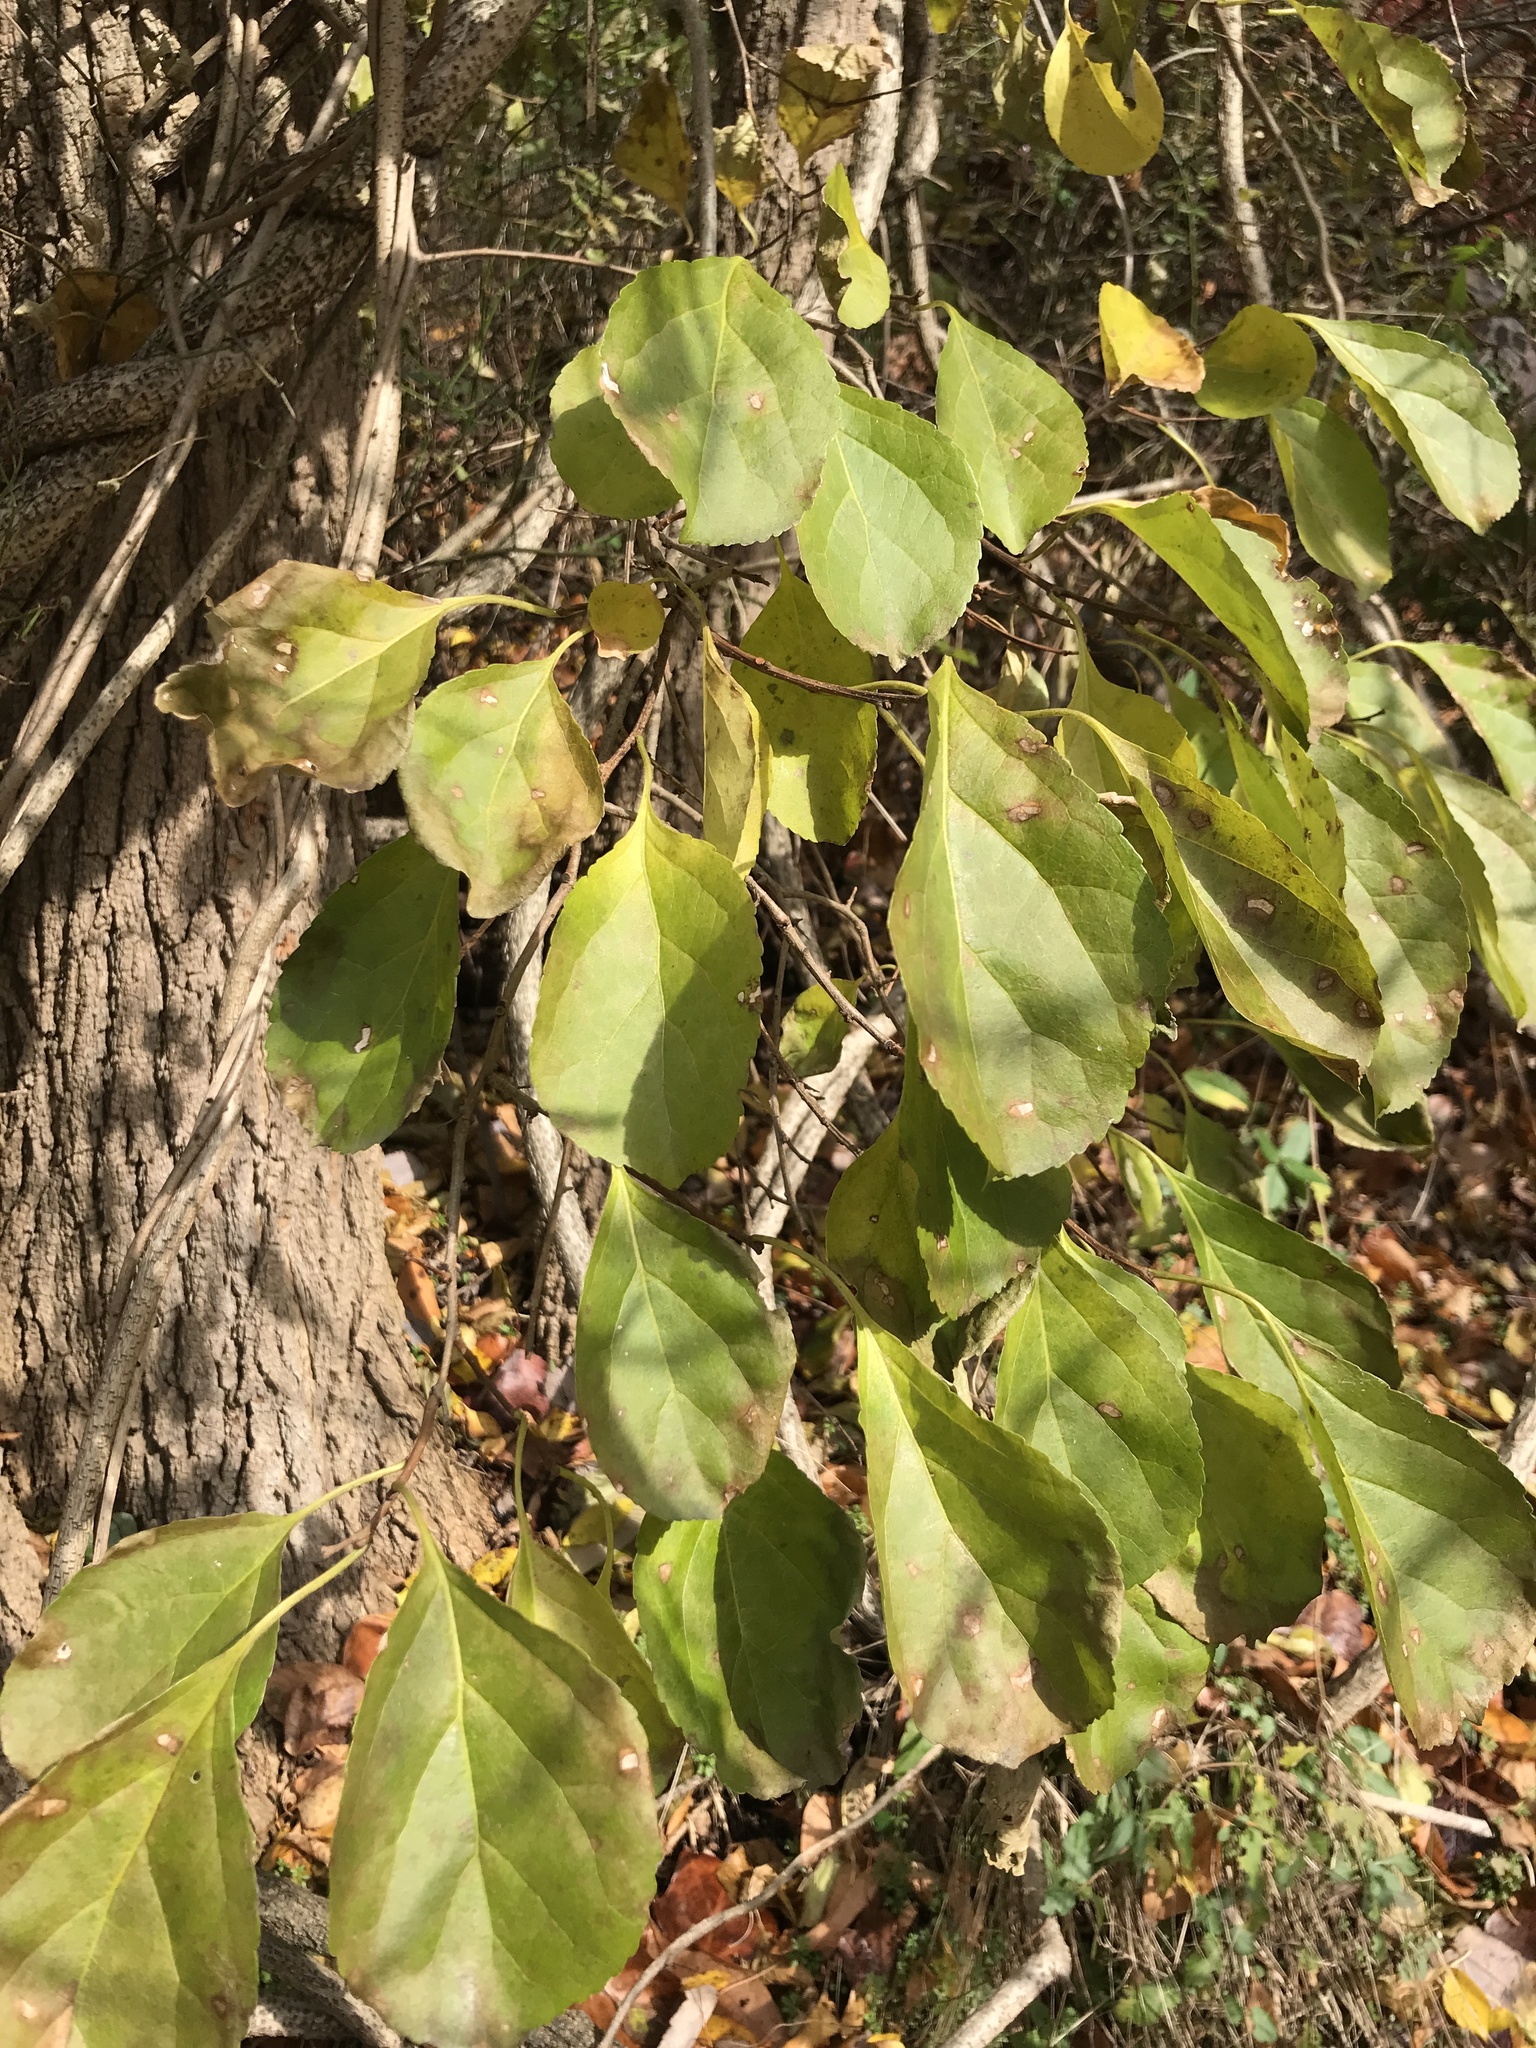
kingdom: Plantae
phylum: Tracheophyta
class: Magnoliopsida
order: Celastrales
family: Celastraceae
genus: Celastrus
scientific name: Celastrus orbiculatus
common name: Oriental bittersweet
